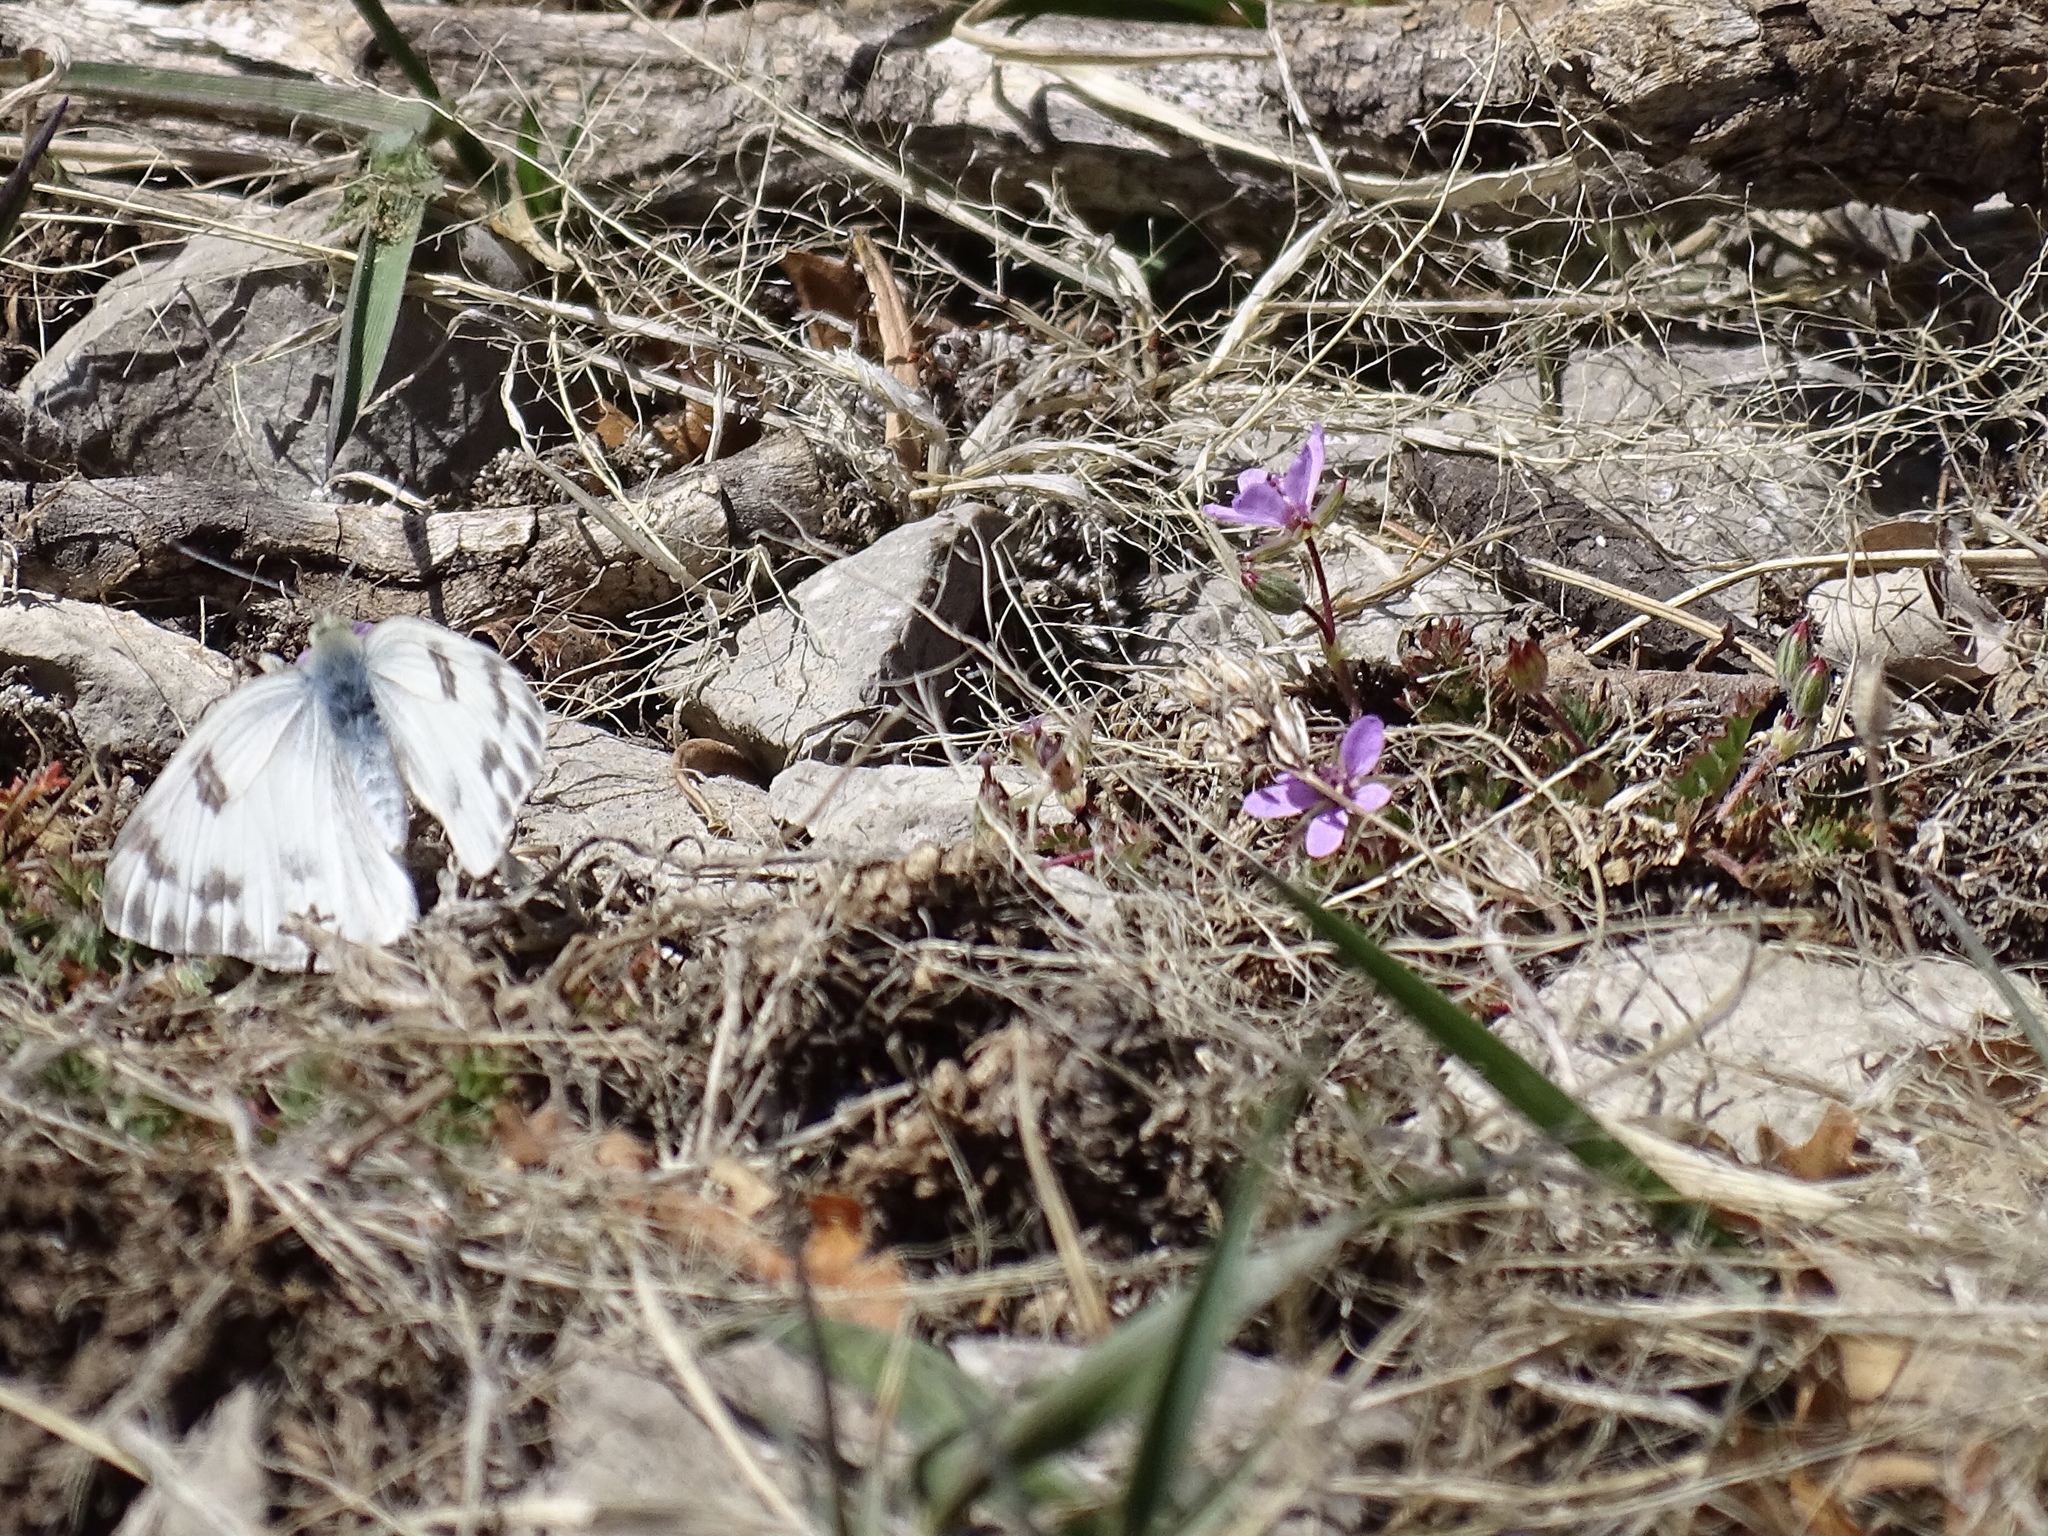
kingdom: Plantae
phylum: Tracheophyta
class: Magnoliopsida
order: Geraniales
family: Geraniaceae
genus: Erodium
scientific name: Erodium cicutarium
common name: Common stork's-bill
